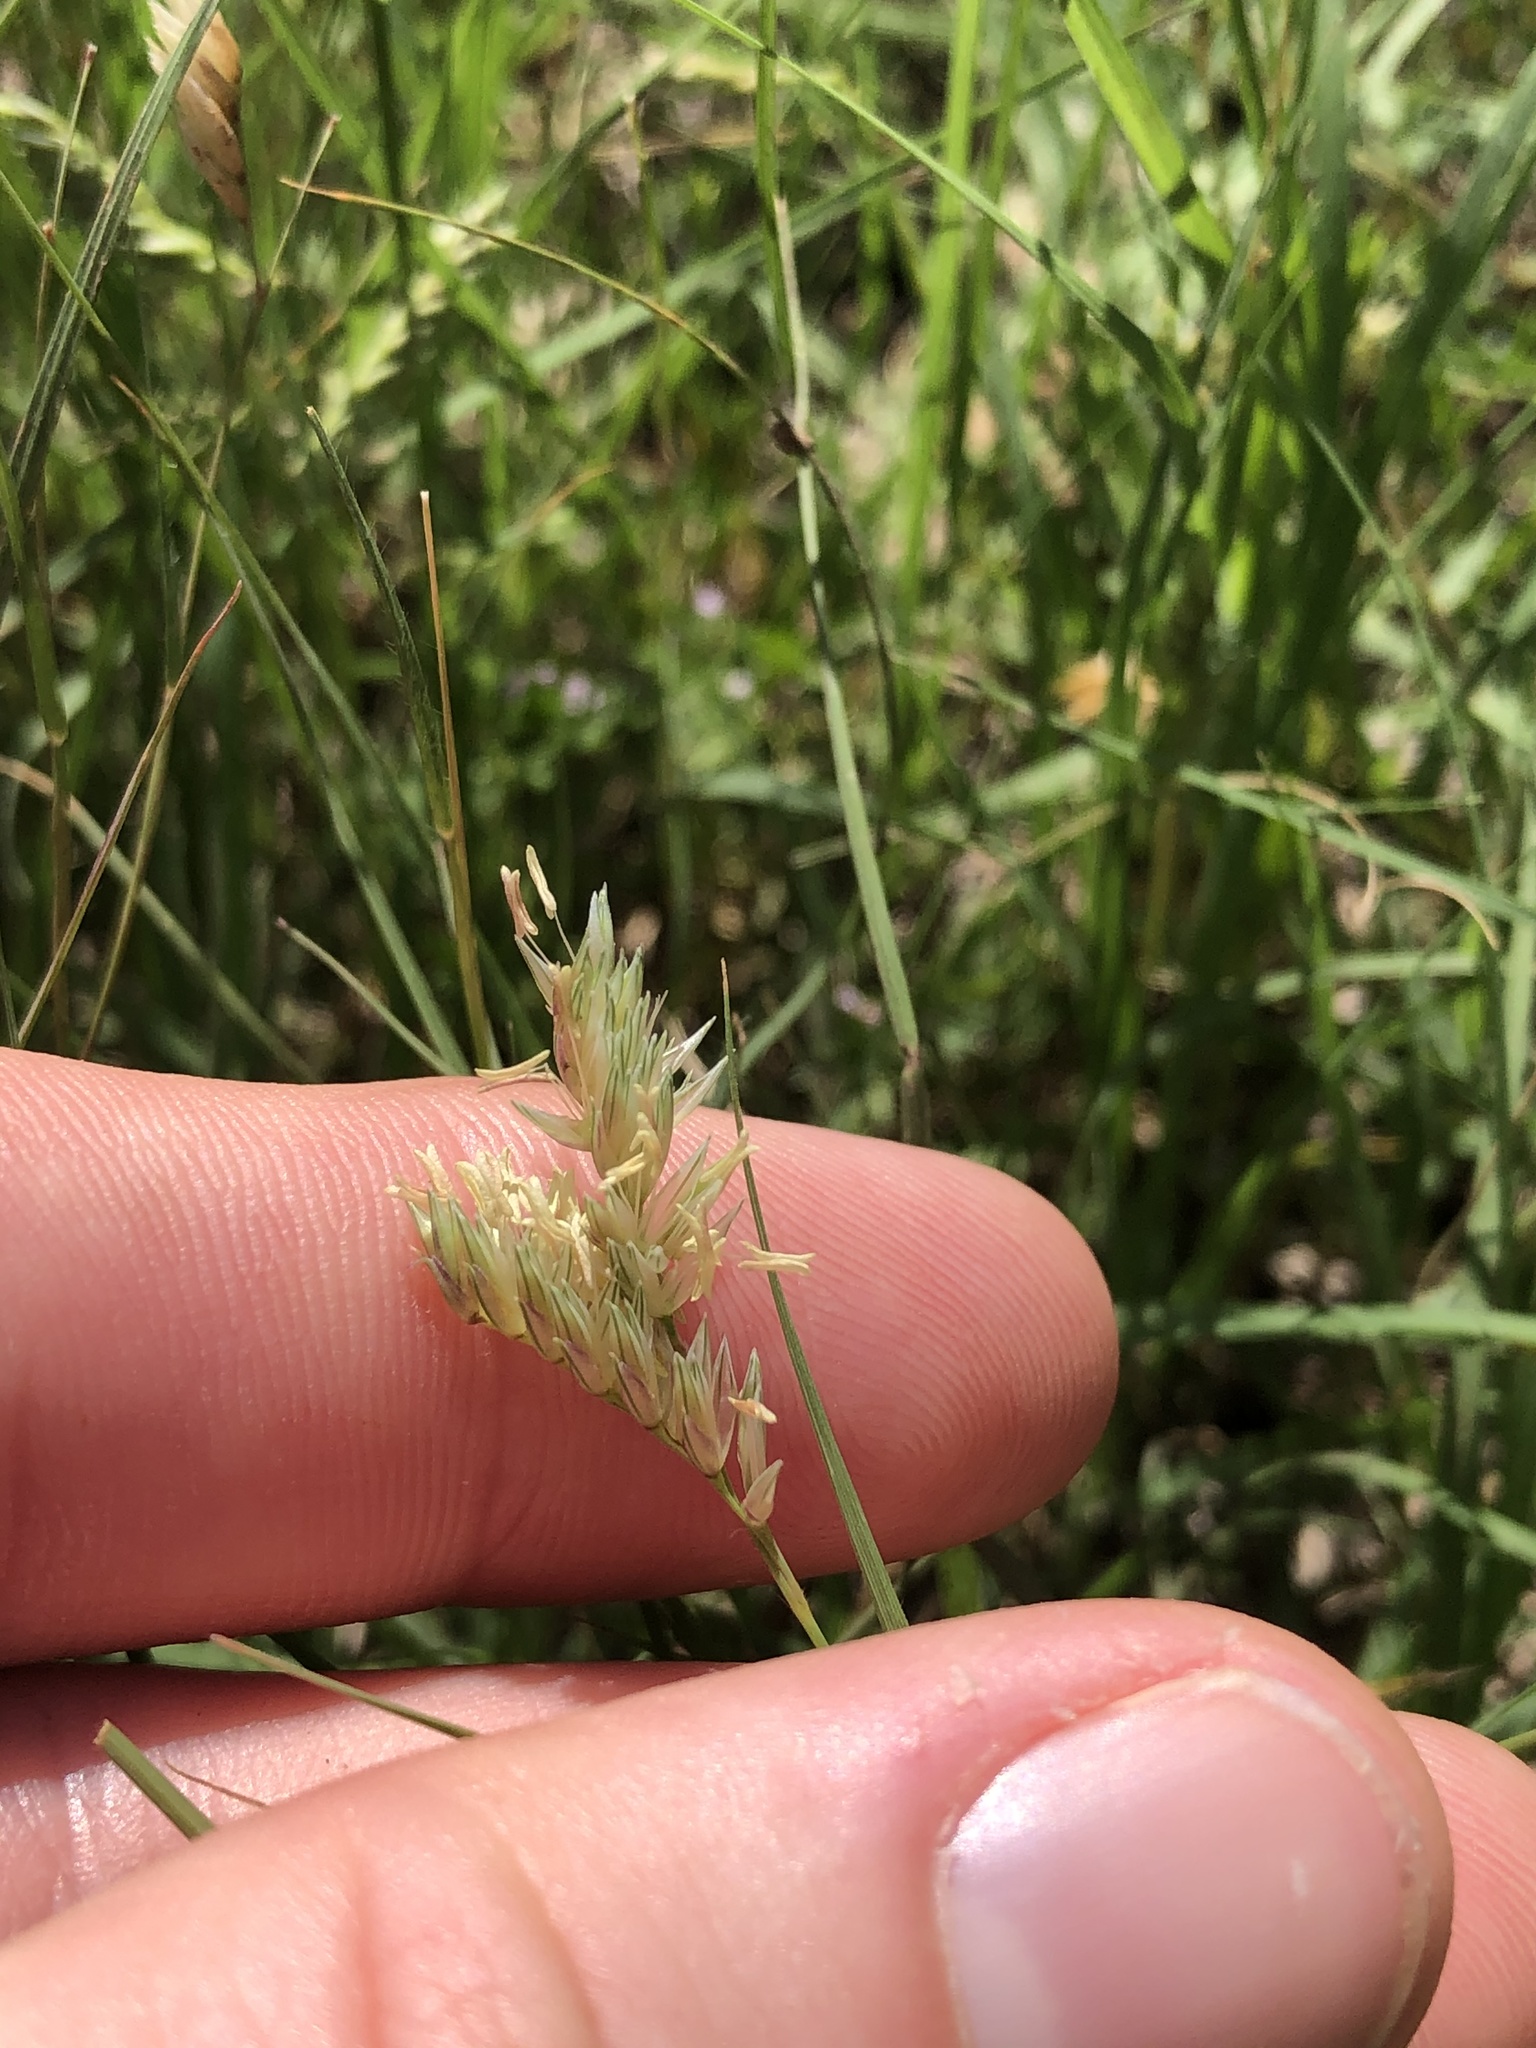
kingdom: Plantae
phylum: Tracheophyta
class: Liliopsida
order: Poales
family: Poaceae
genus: Bouteloua
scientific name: Bouteloua dactyloides
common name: Buffalo grass
